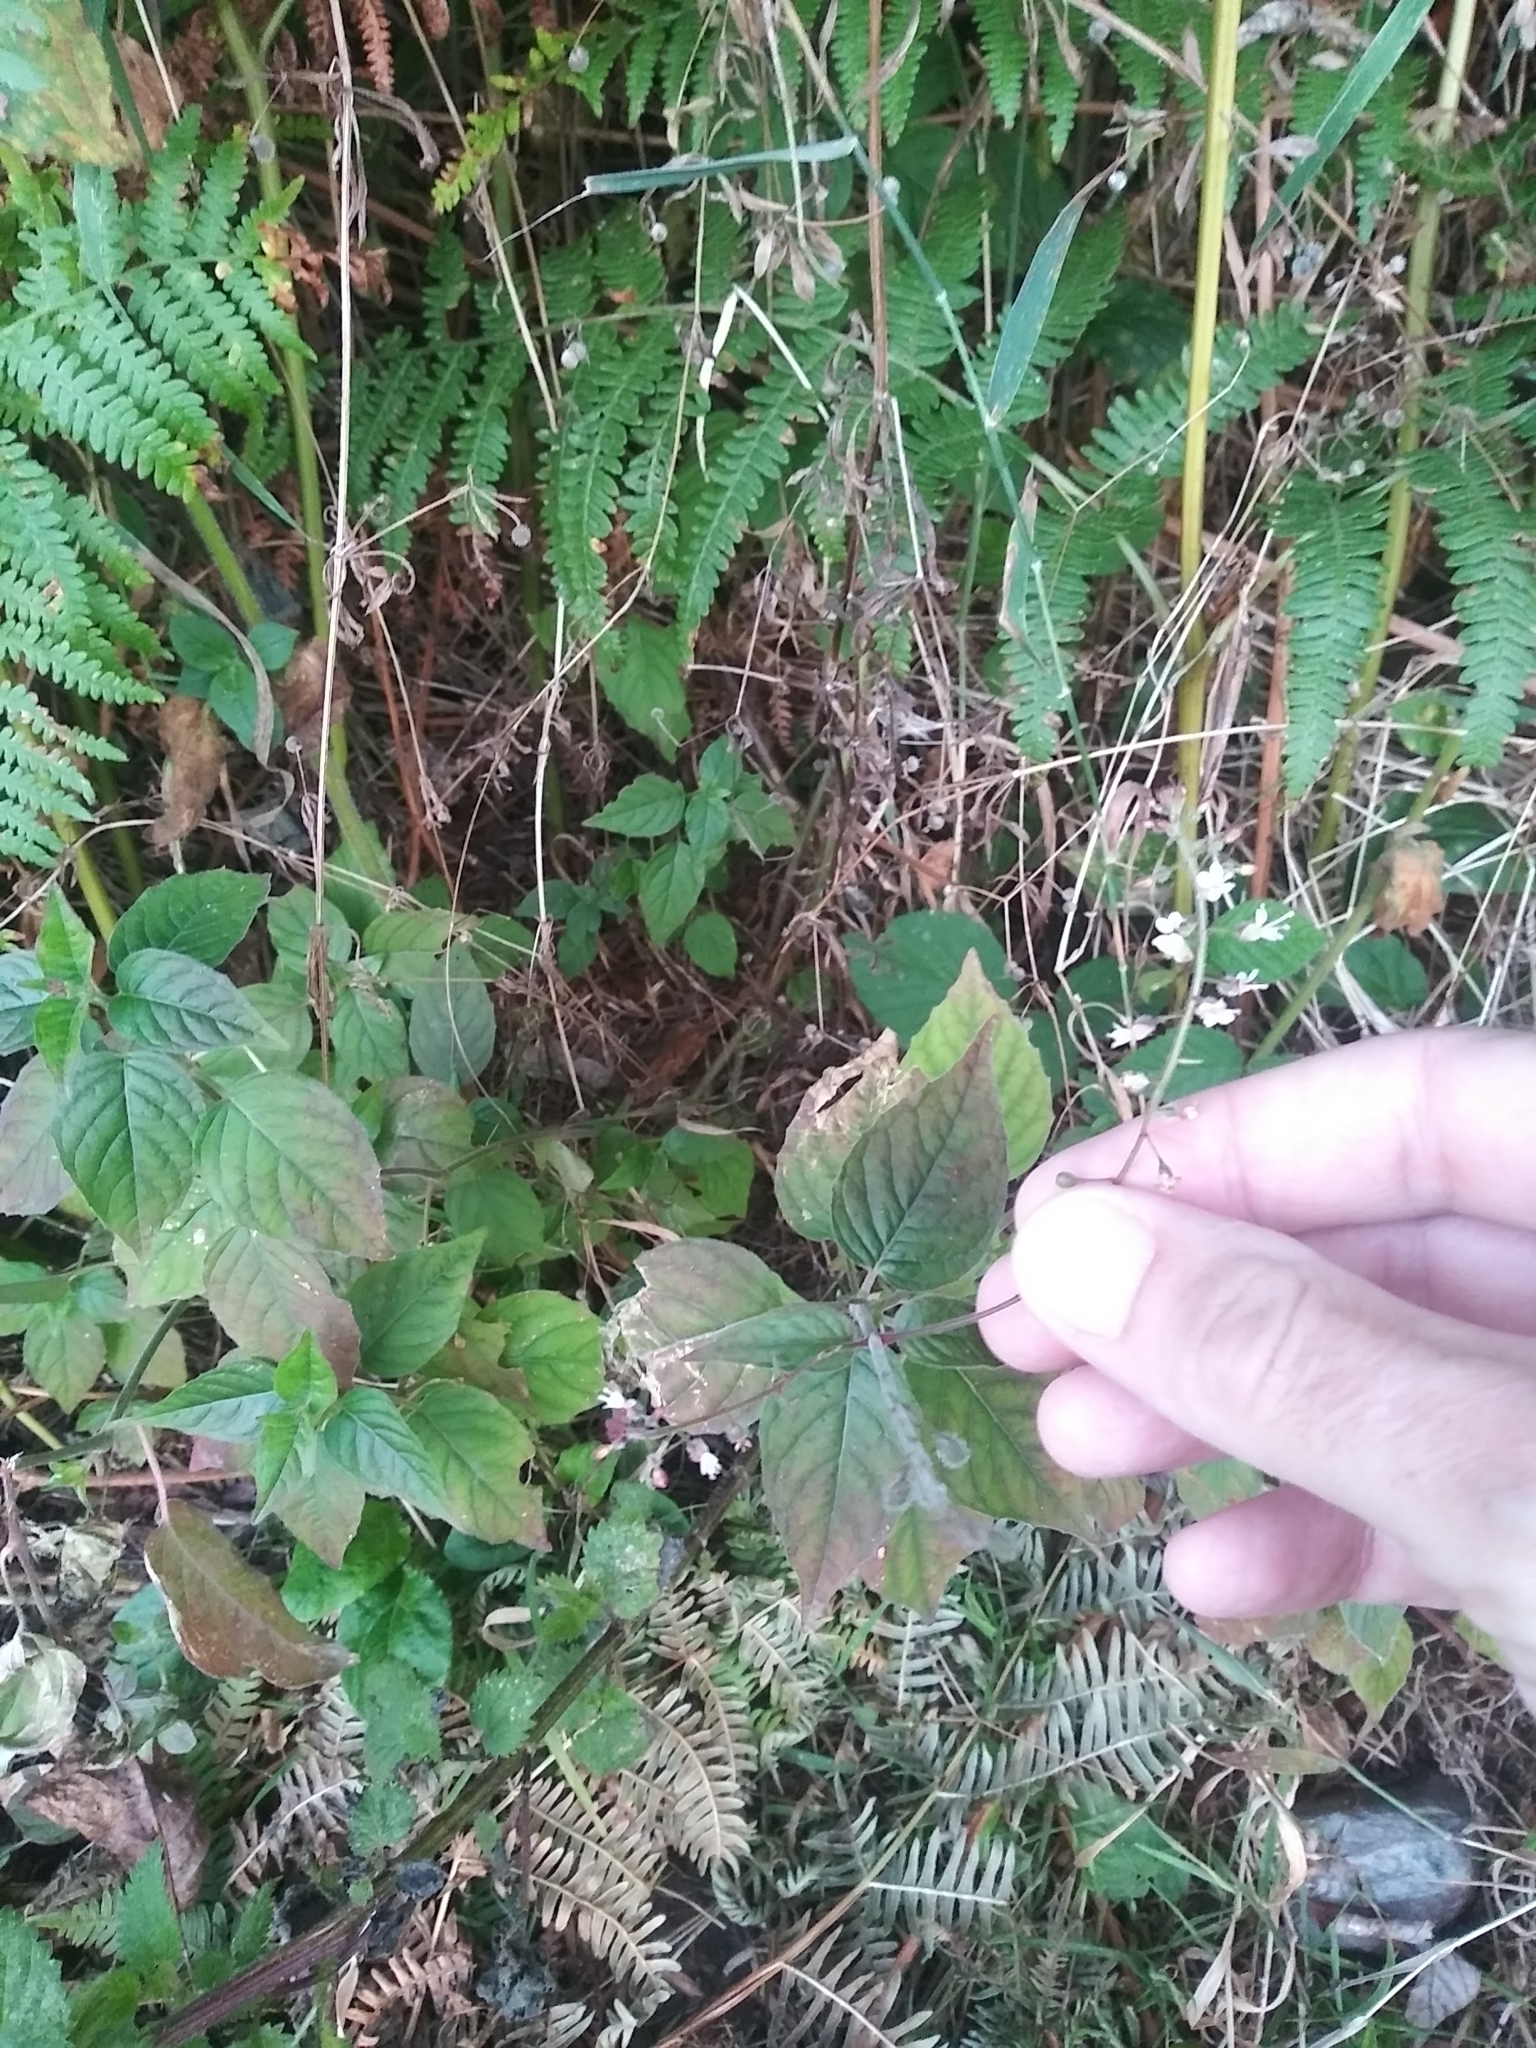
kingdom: Plantae
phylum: Tracheophyta
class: Magnoliopsida
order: Myrtales
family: Onagraceae
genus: Circaea
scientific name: Circaea lutetiana
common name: Enchanter's-nightshade
